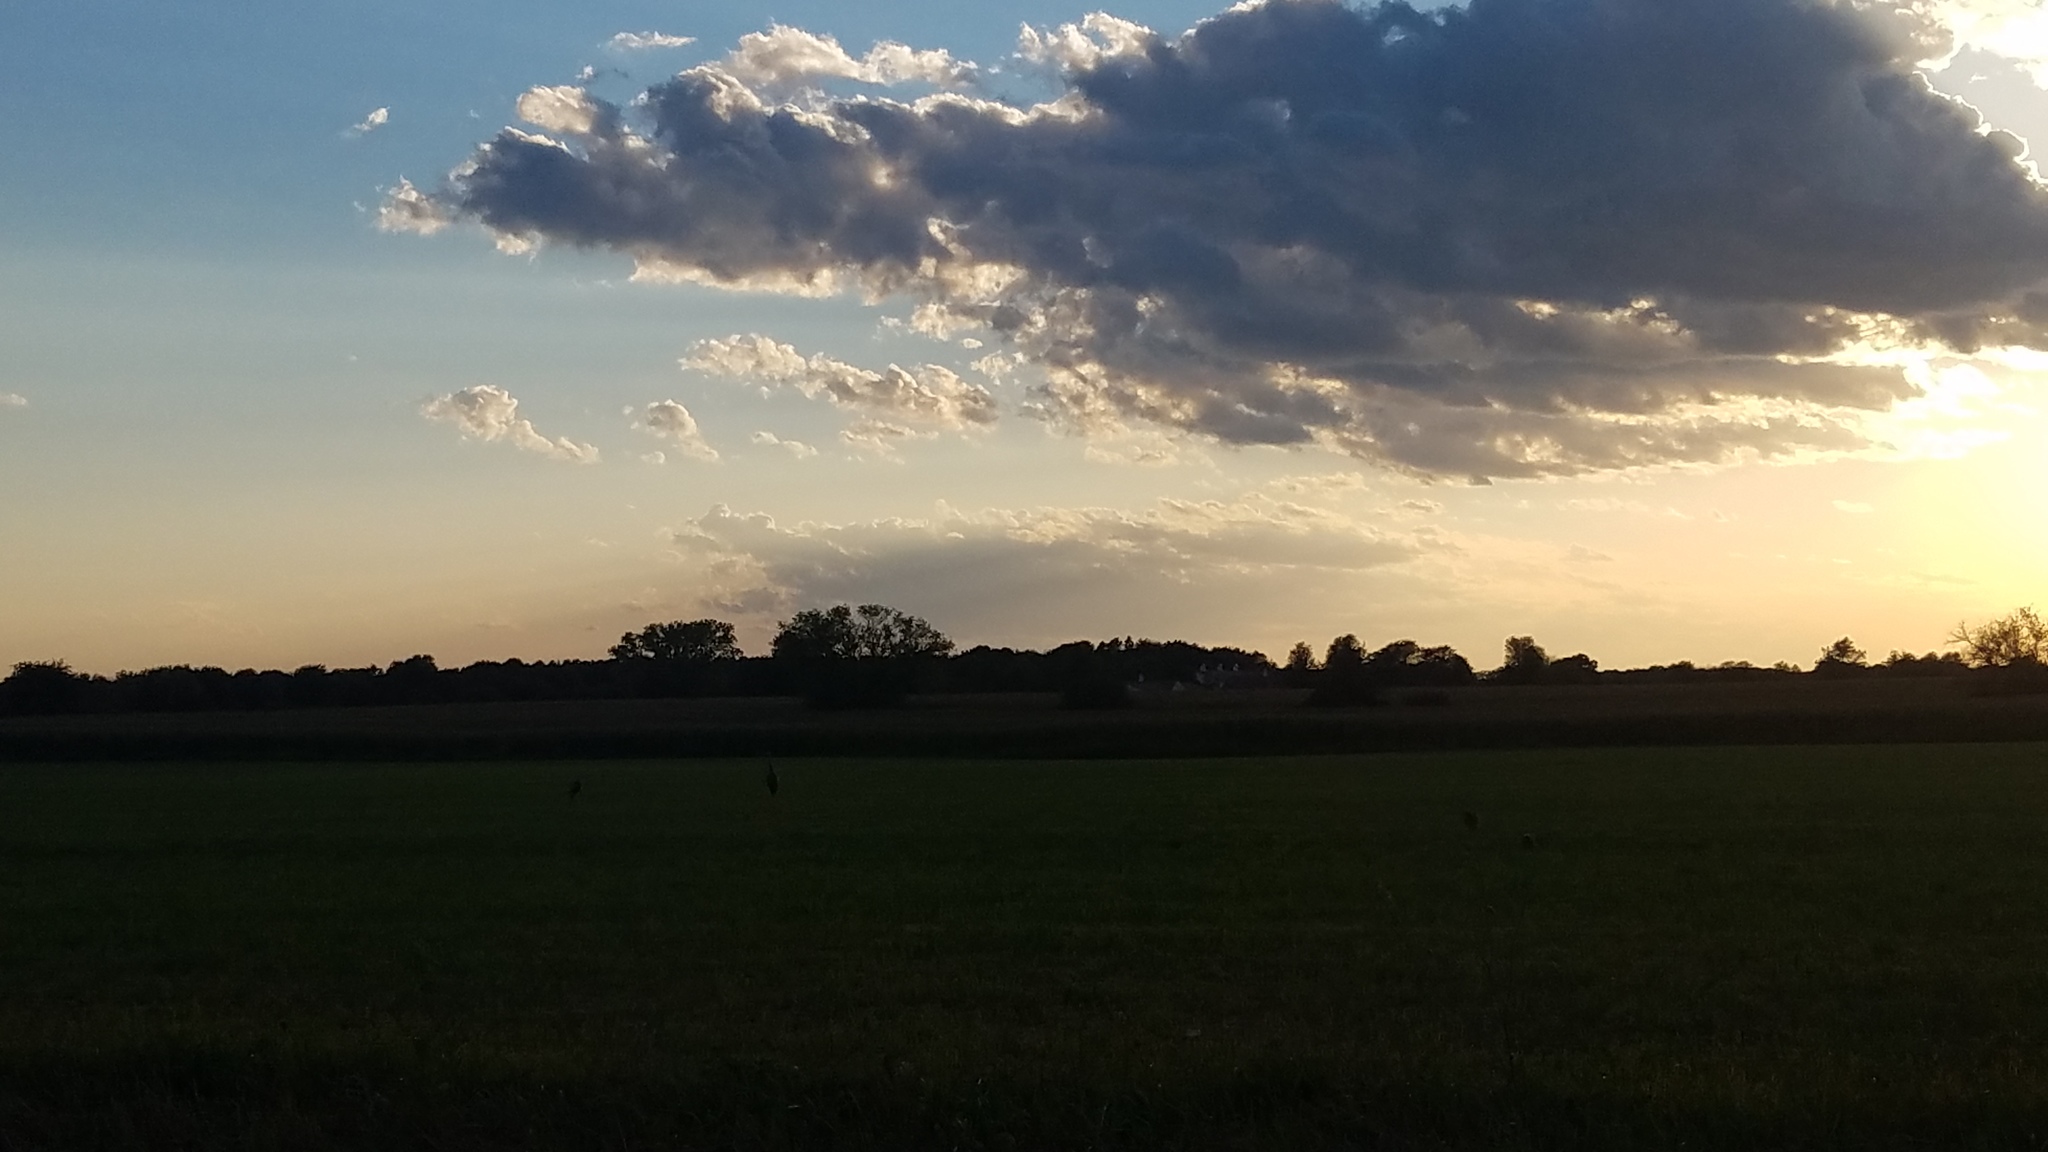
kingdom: Animalia
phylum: Chordata
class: Aves
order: Gruiformes
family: Gruidae
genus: Grus
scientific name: Grus canadensis
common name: Sandhill crane
